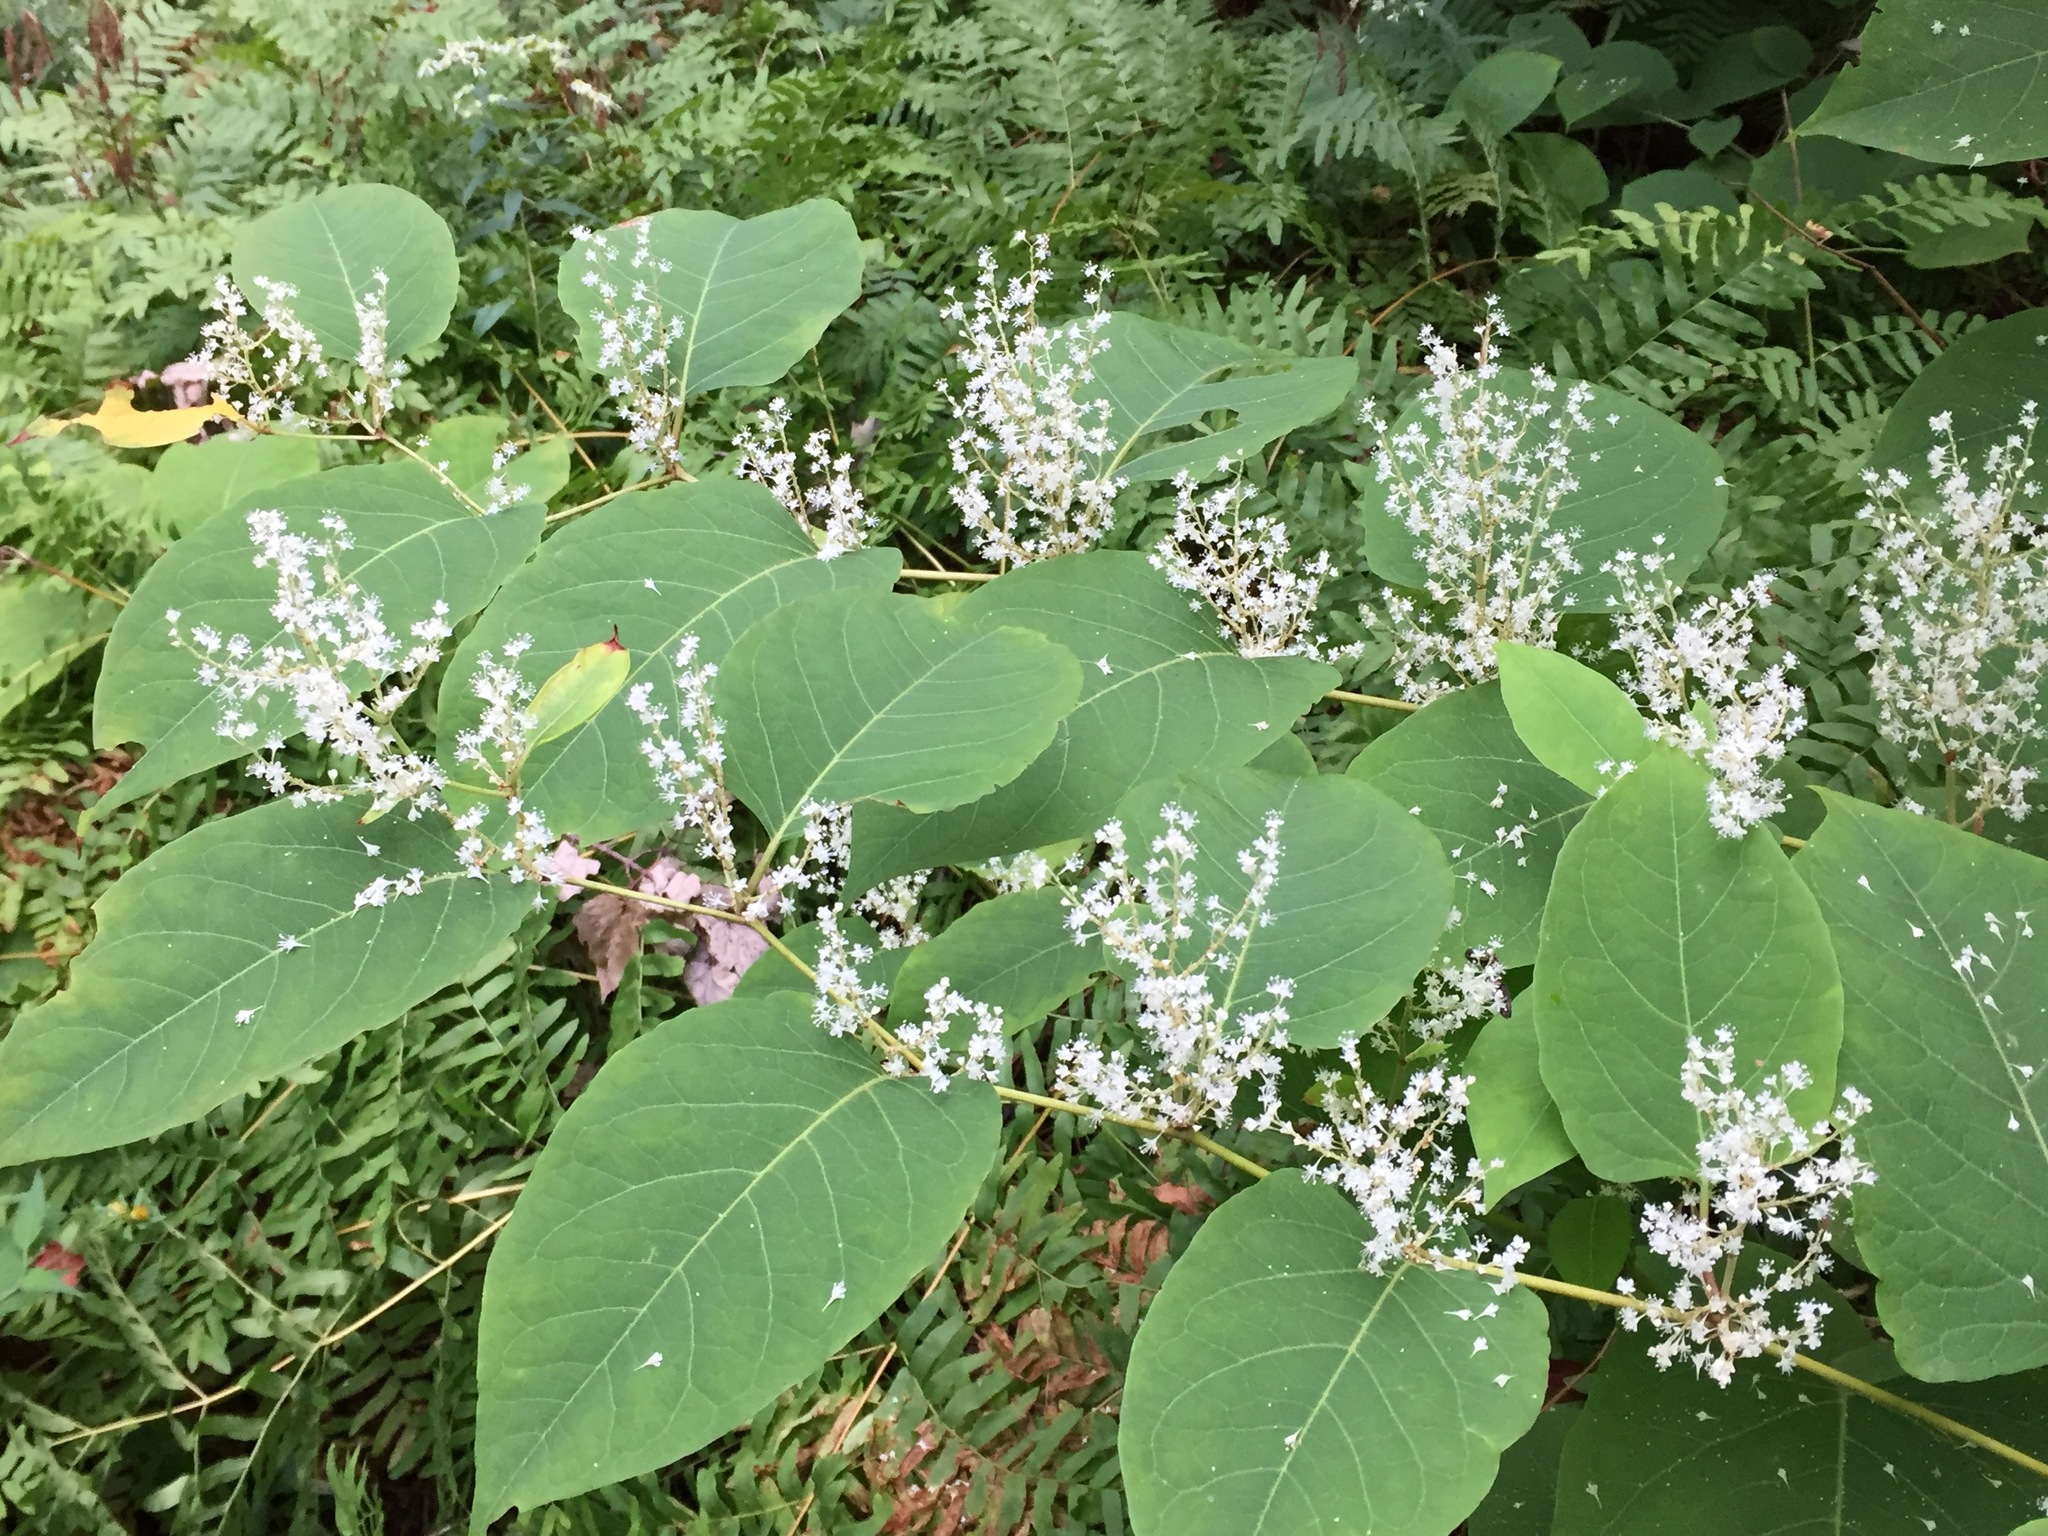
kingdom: Plantae
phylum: Tracheophyta
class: Magnoliopsida
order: Caryophyllales
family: Polygonaceae
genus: Reynoutria
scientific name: Reynoutria japonica
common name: Japanese knotweed
